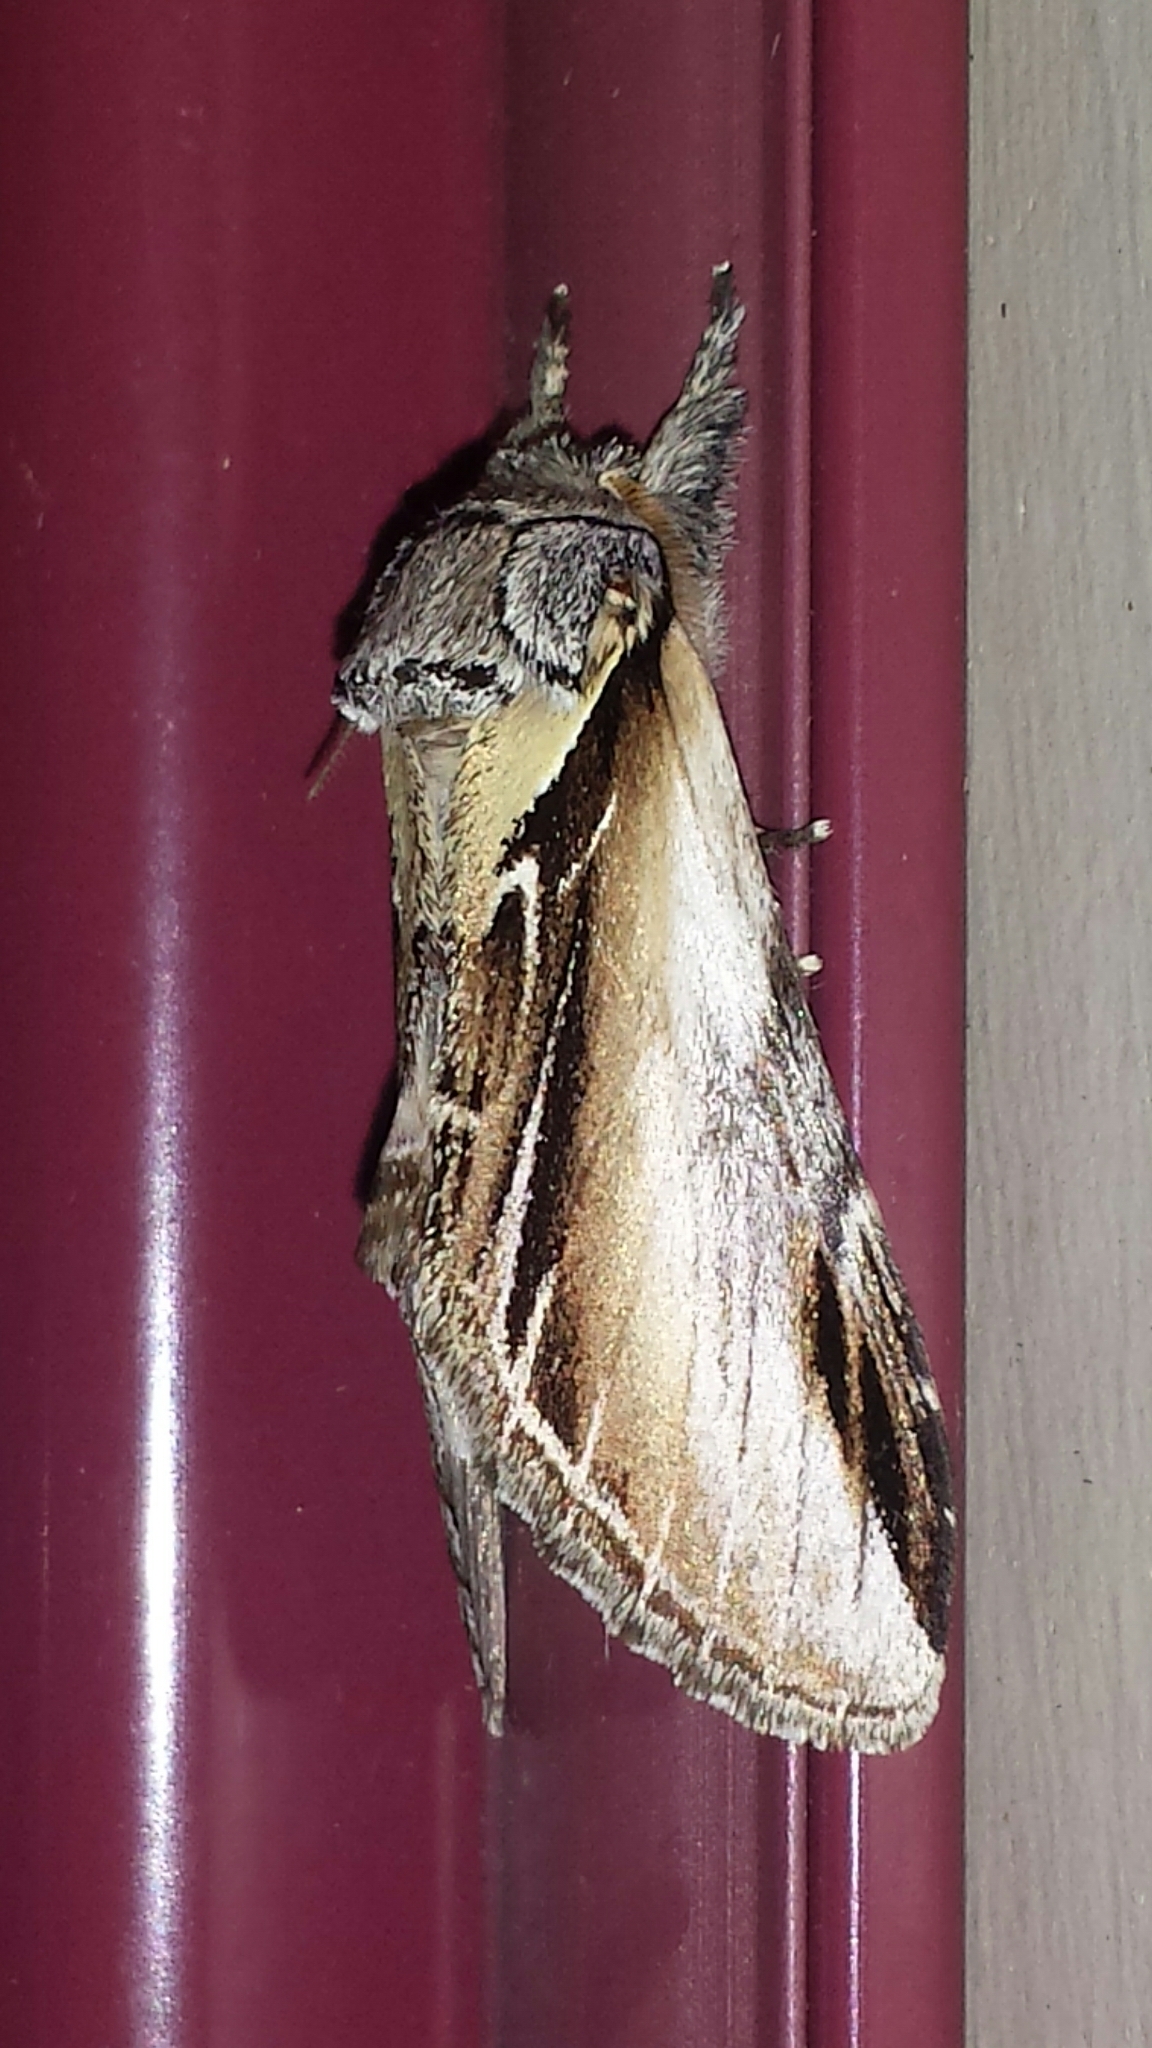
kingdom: Animalia
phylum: Arthropoda
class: Insecta
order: Lepidoptera
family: Notodontidae
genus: Pheosia
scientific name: Pheosia rimosa
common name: Black-rimmed prominent
